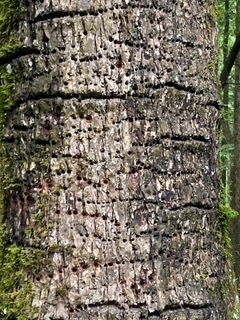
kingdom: Animalia
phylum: Chordata
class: Aves
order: Piciformes
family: Picidae
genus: Sphyrapicus
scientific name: Sphyrapicus varius
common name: Yellow-bellied sapsucker
